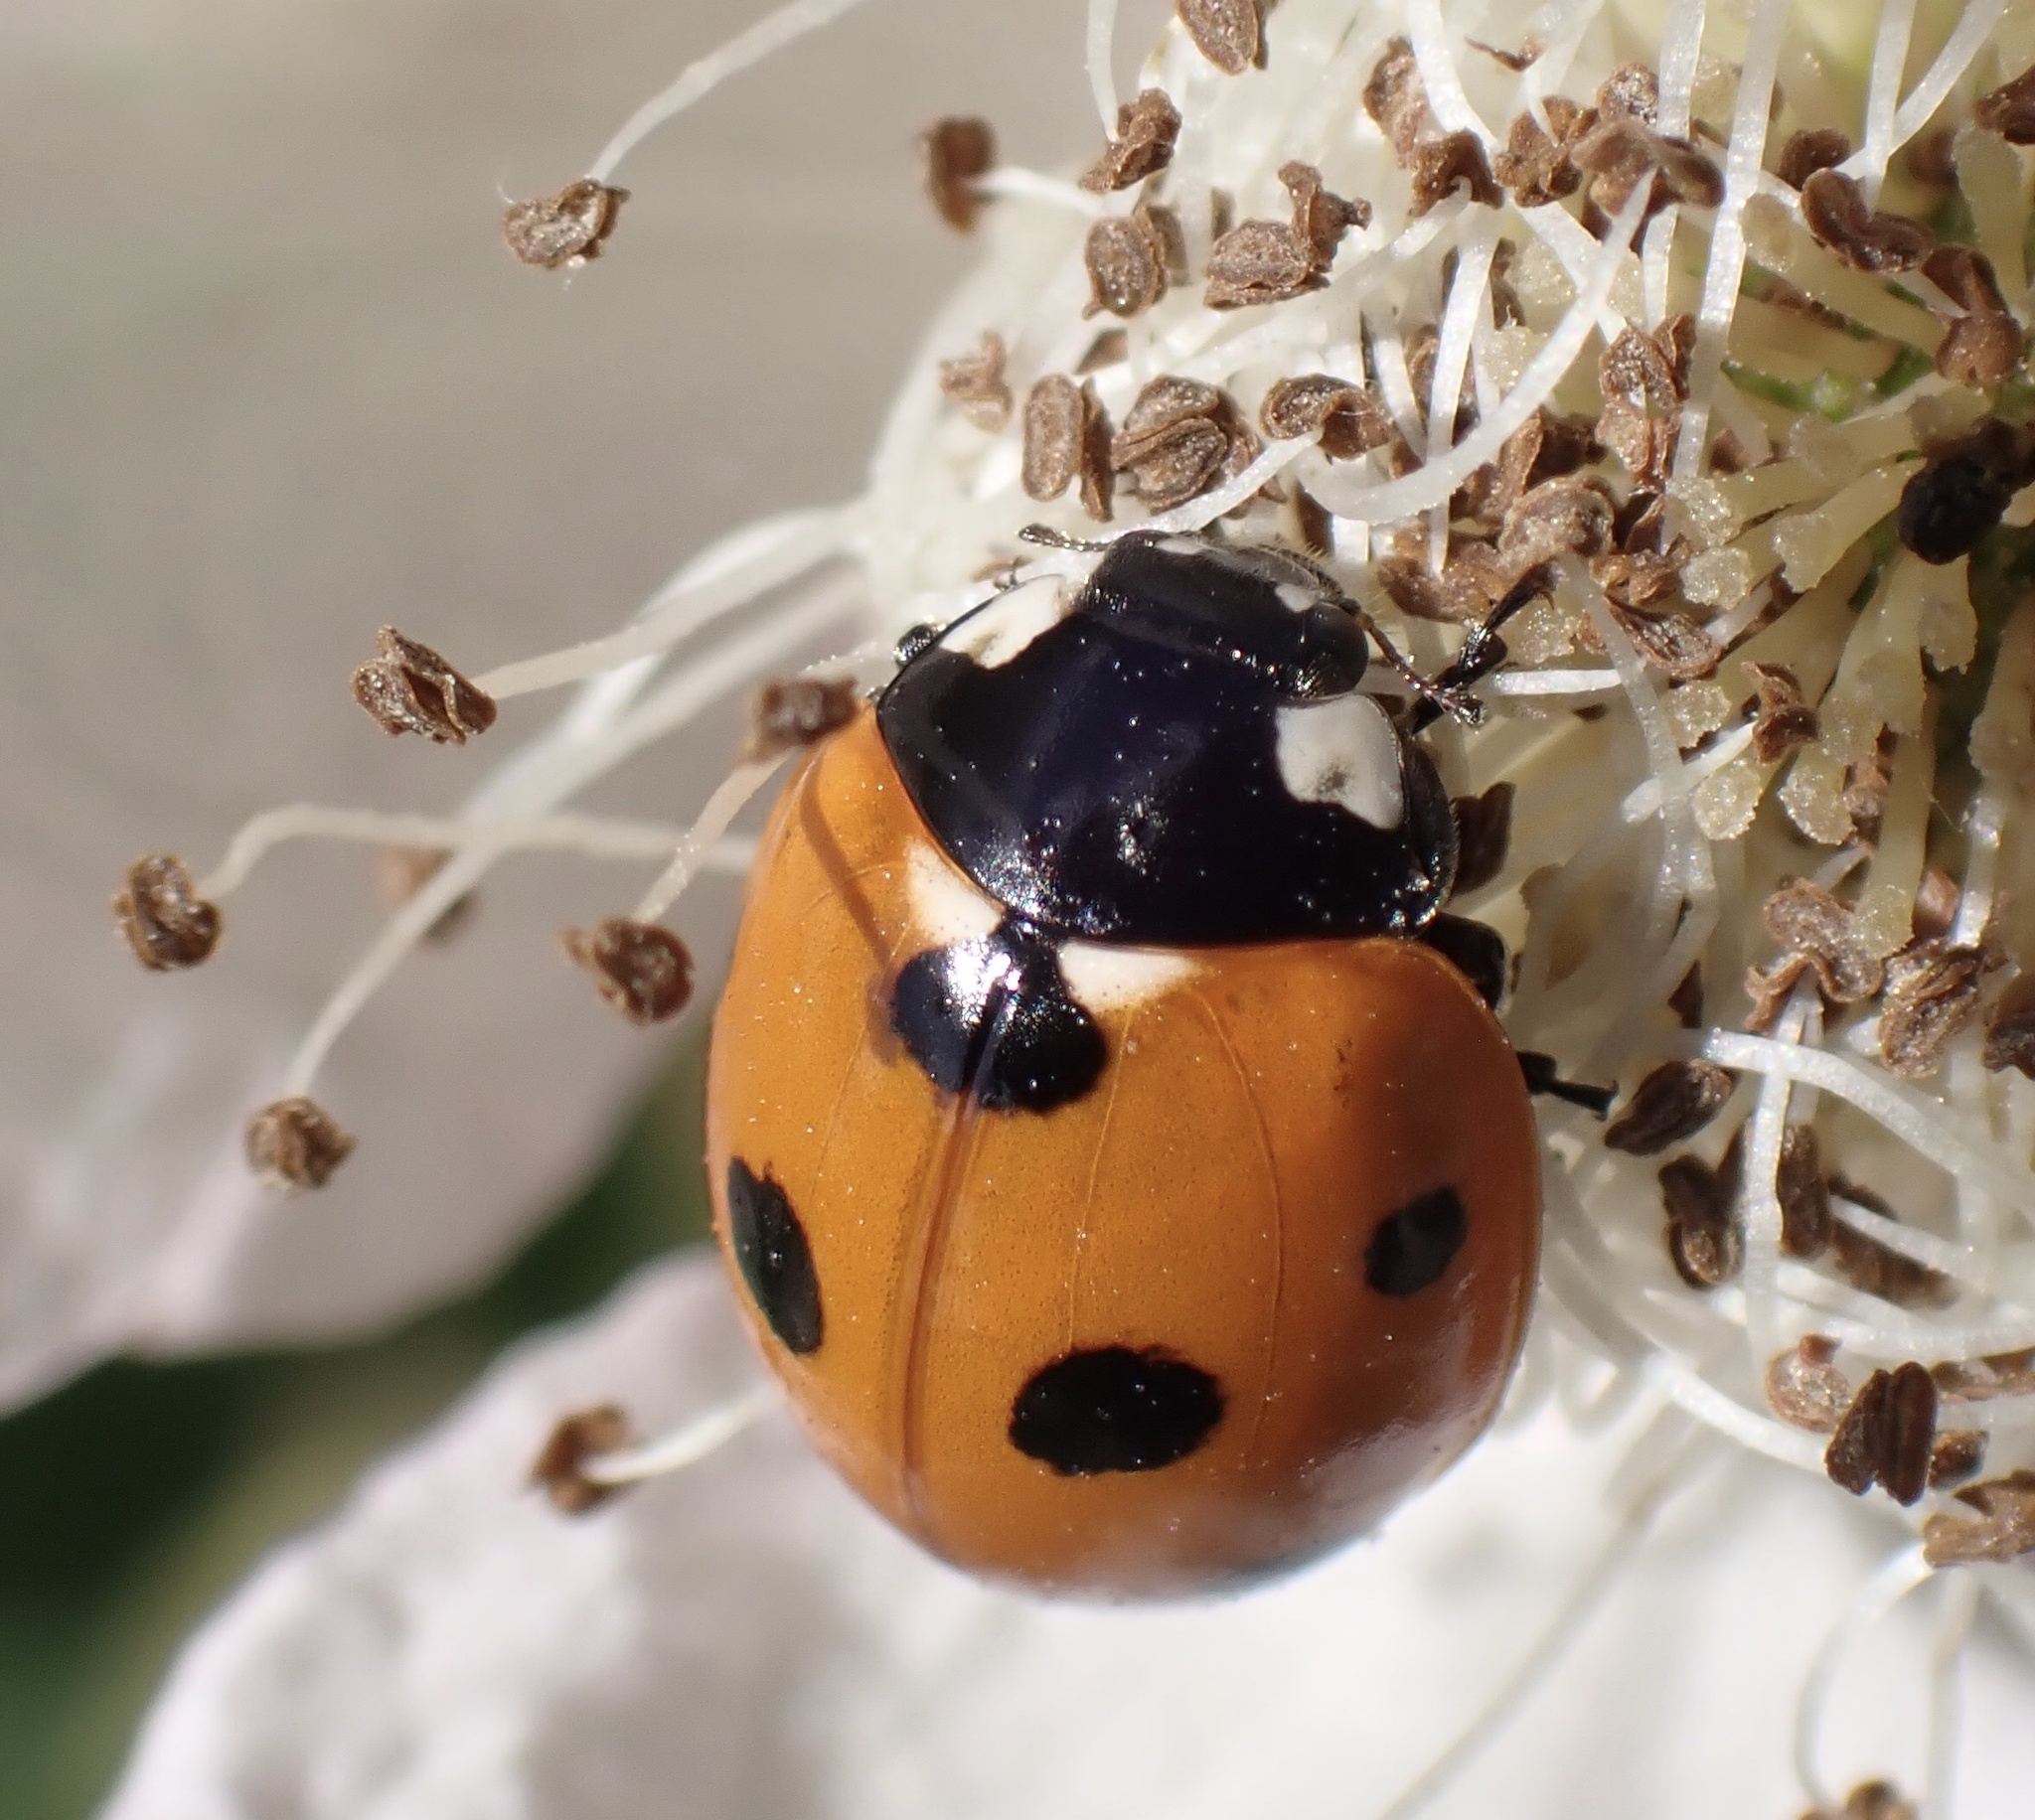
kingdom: Animalia
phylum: Arthropoda
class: Insecta
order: Coleoptera
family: Coccinellidae
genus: Coccinella
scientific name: Coccinella septempunctata
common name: Sevenspotted lady beetle
